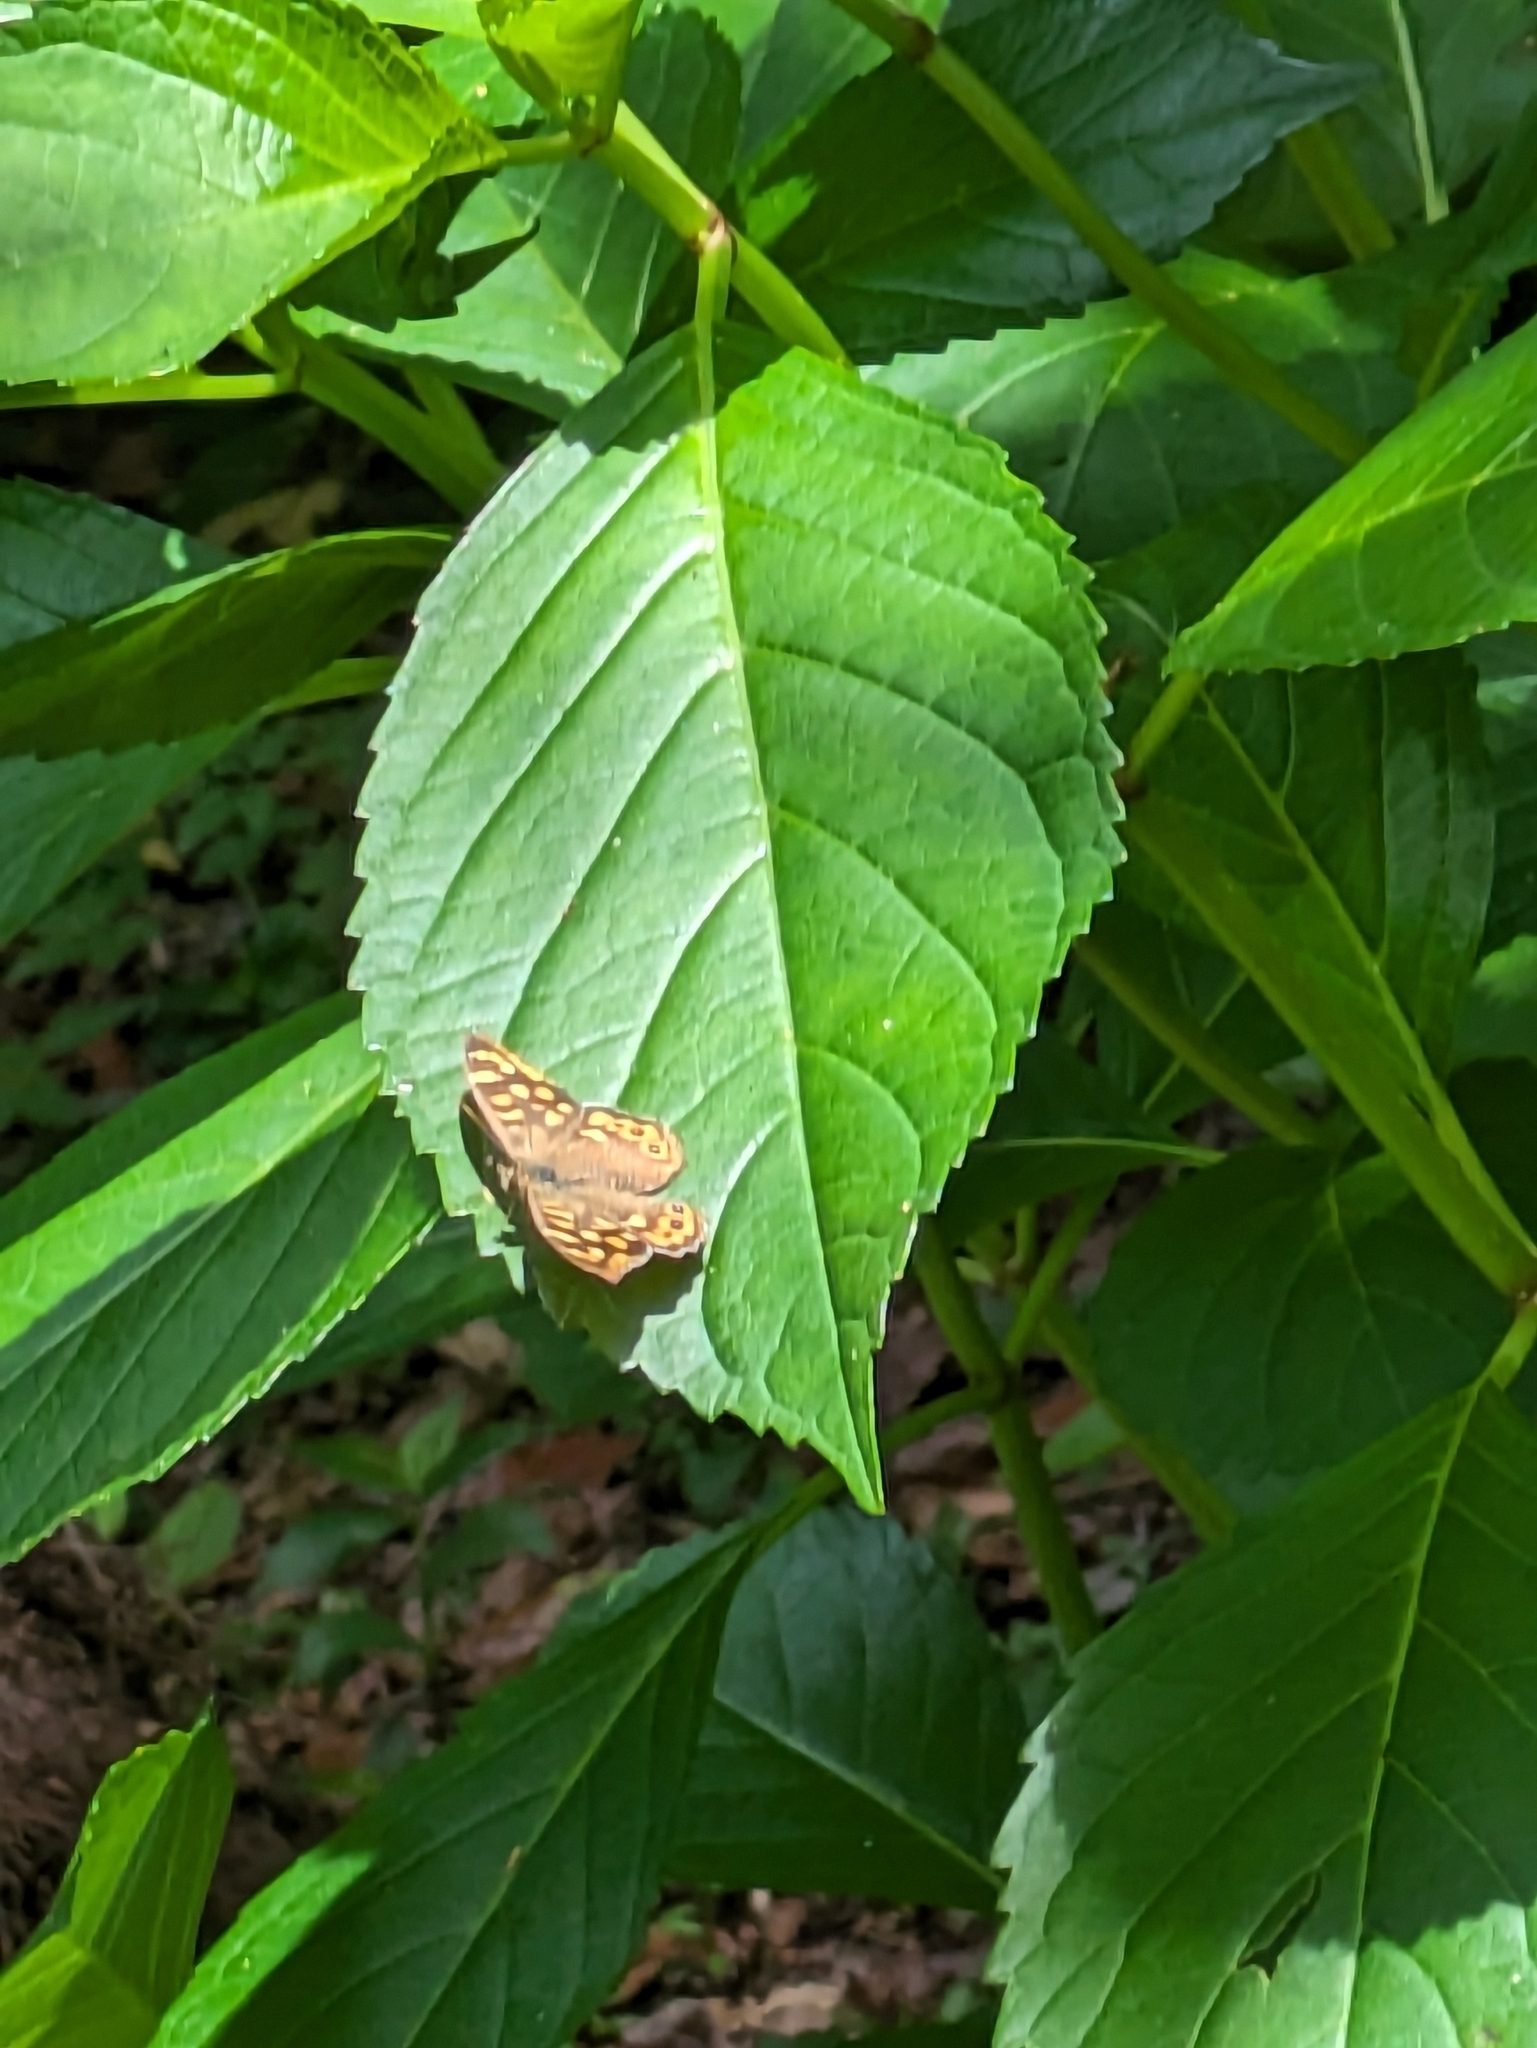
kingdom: Animalia
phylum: Arthropoda
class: Insecta
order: Lepidoptera
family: Nymphalidae
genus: Pararge
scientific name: Pararge aegeria
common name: Speckled wood
